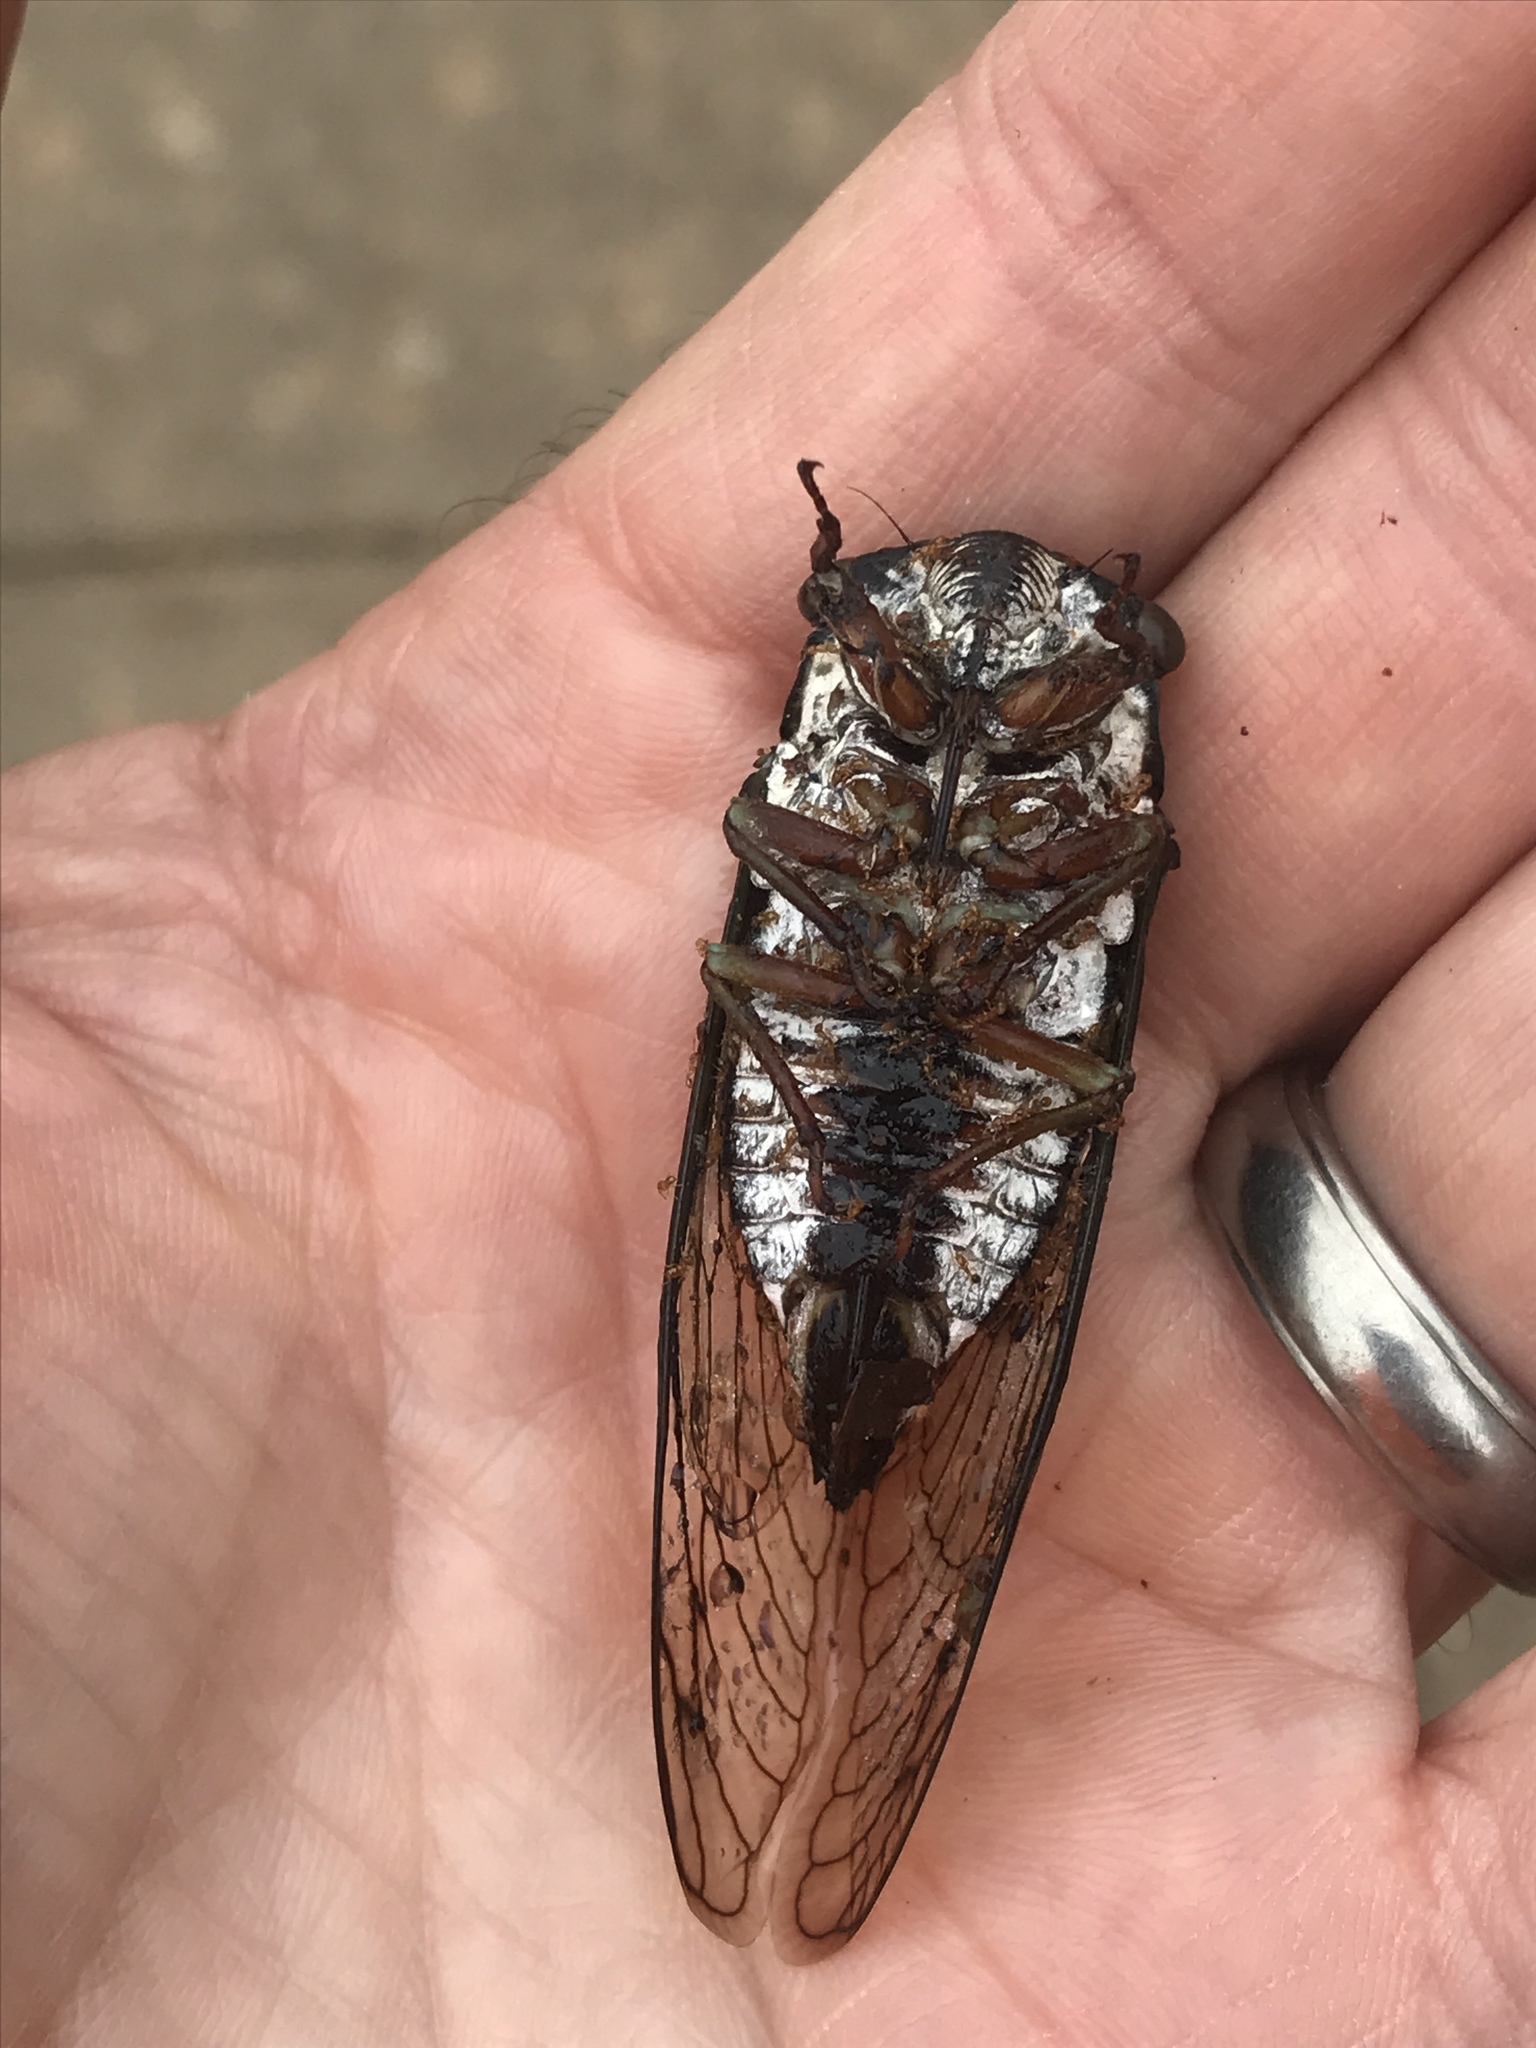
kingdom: Animalia
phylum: Arthropoda
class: Insecta
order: Hemiptera
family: Cicadidae
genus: Neotibicen
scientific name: Neotibicen lyricen
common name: Lyric cicada
